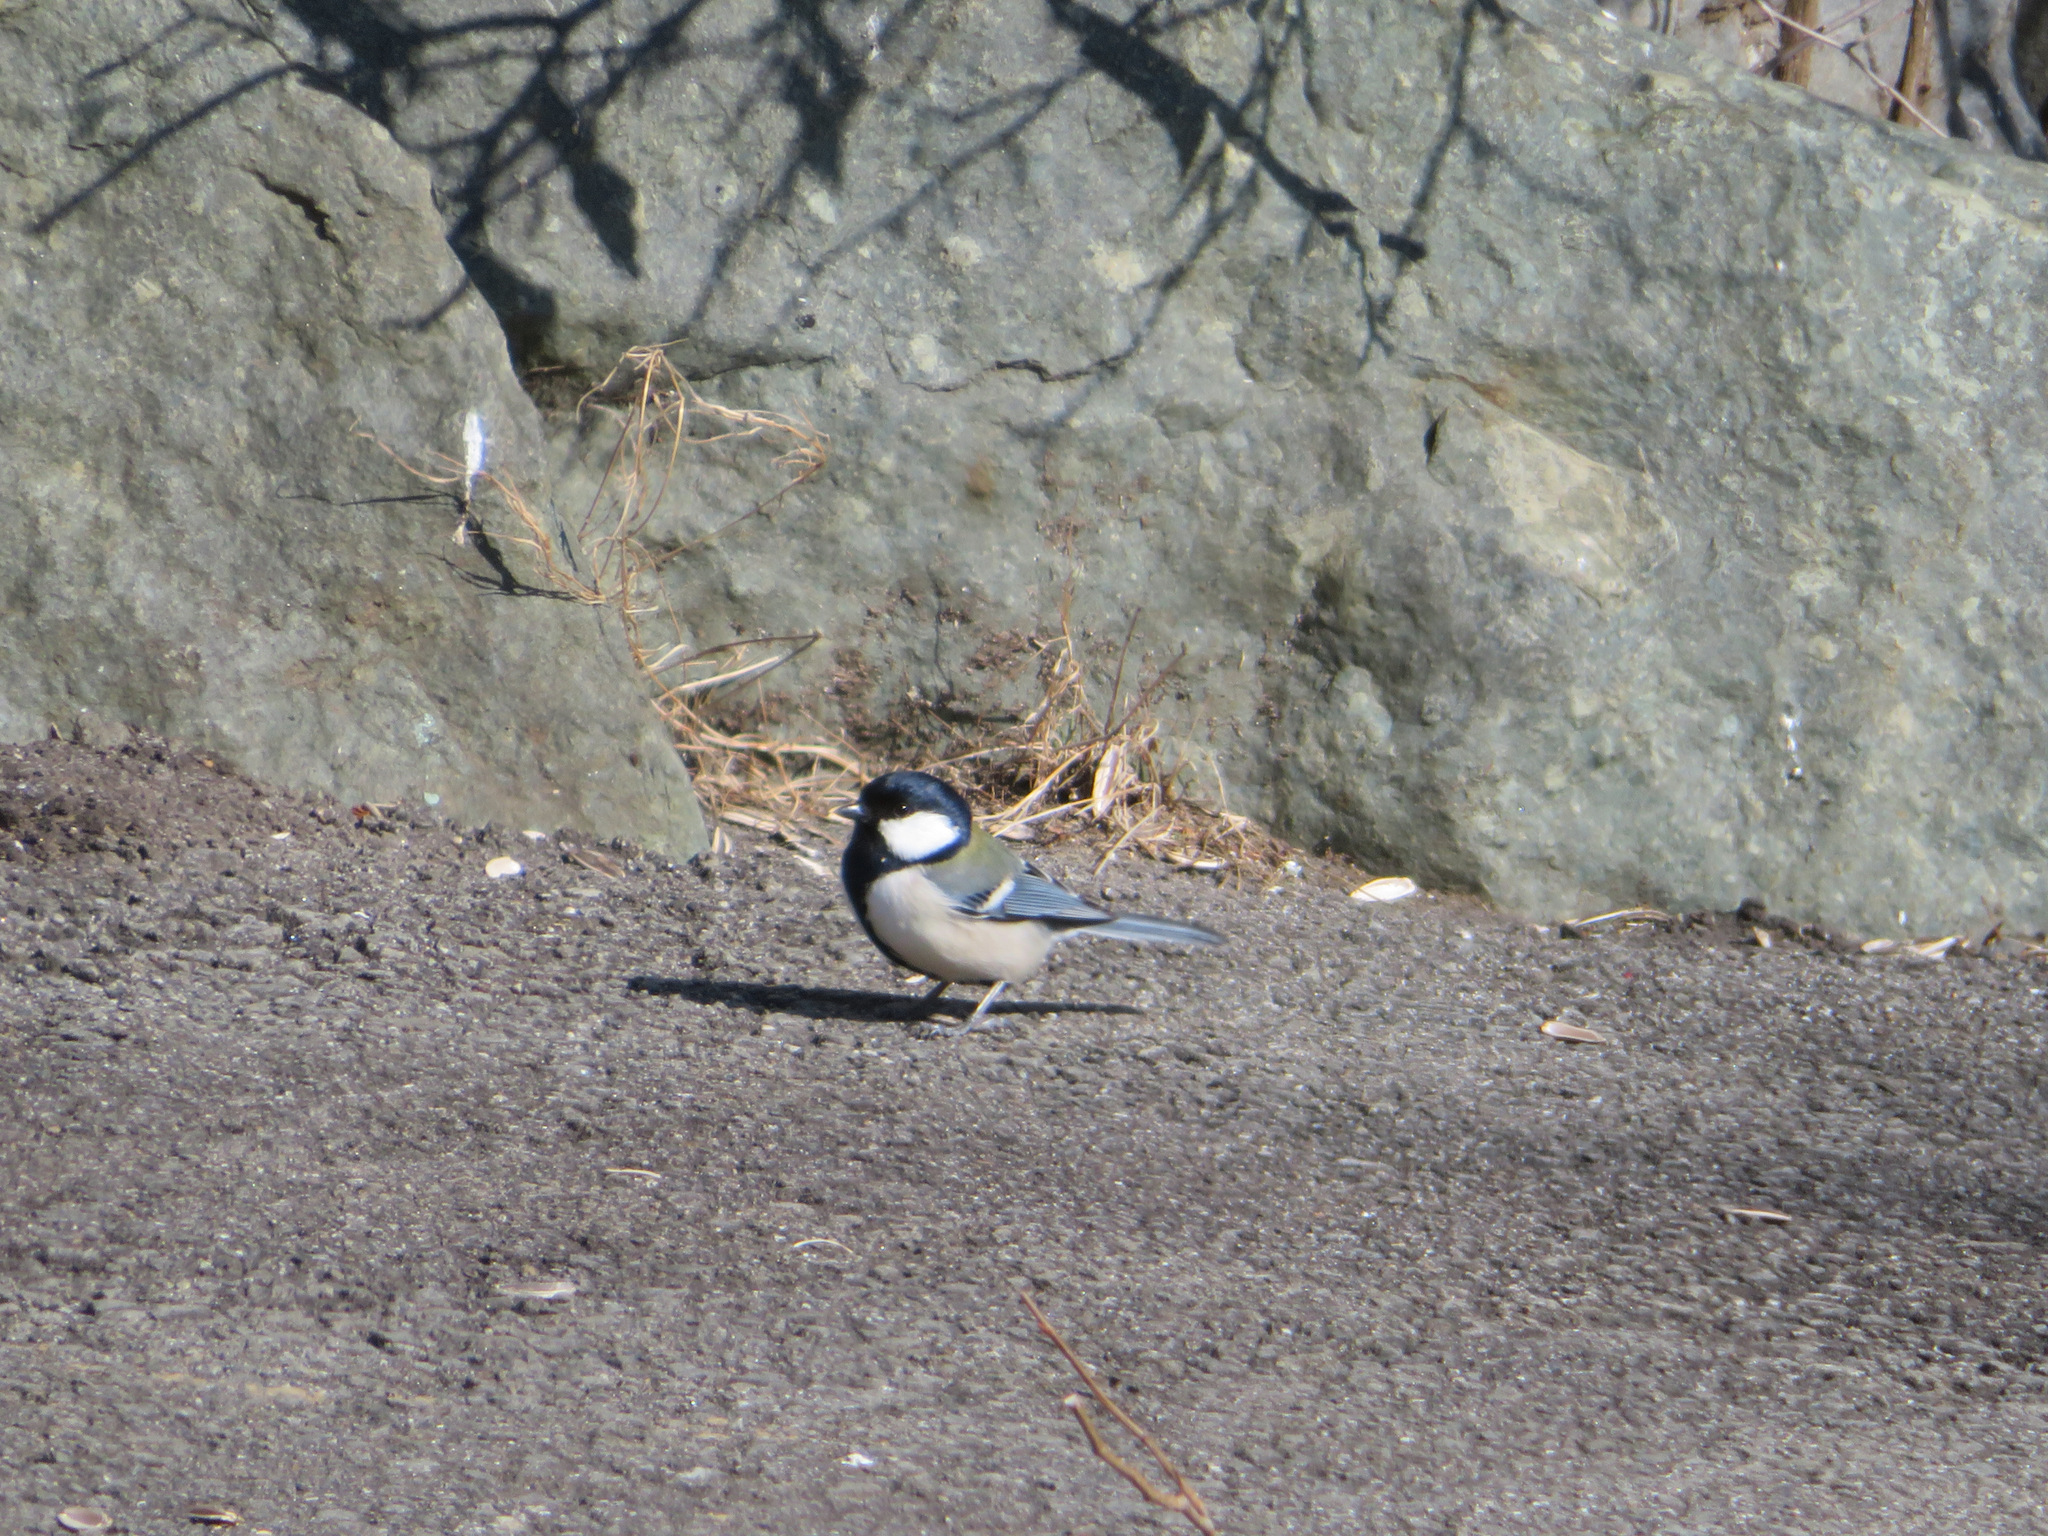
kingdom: Animalia
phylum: Chordata
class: Aves
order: Passeriformes
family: Paridae
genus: Parus
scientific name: Parus minor
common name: Japanese tit
